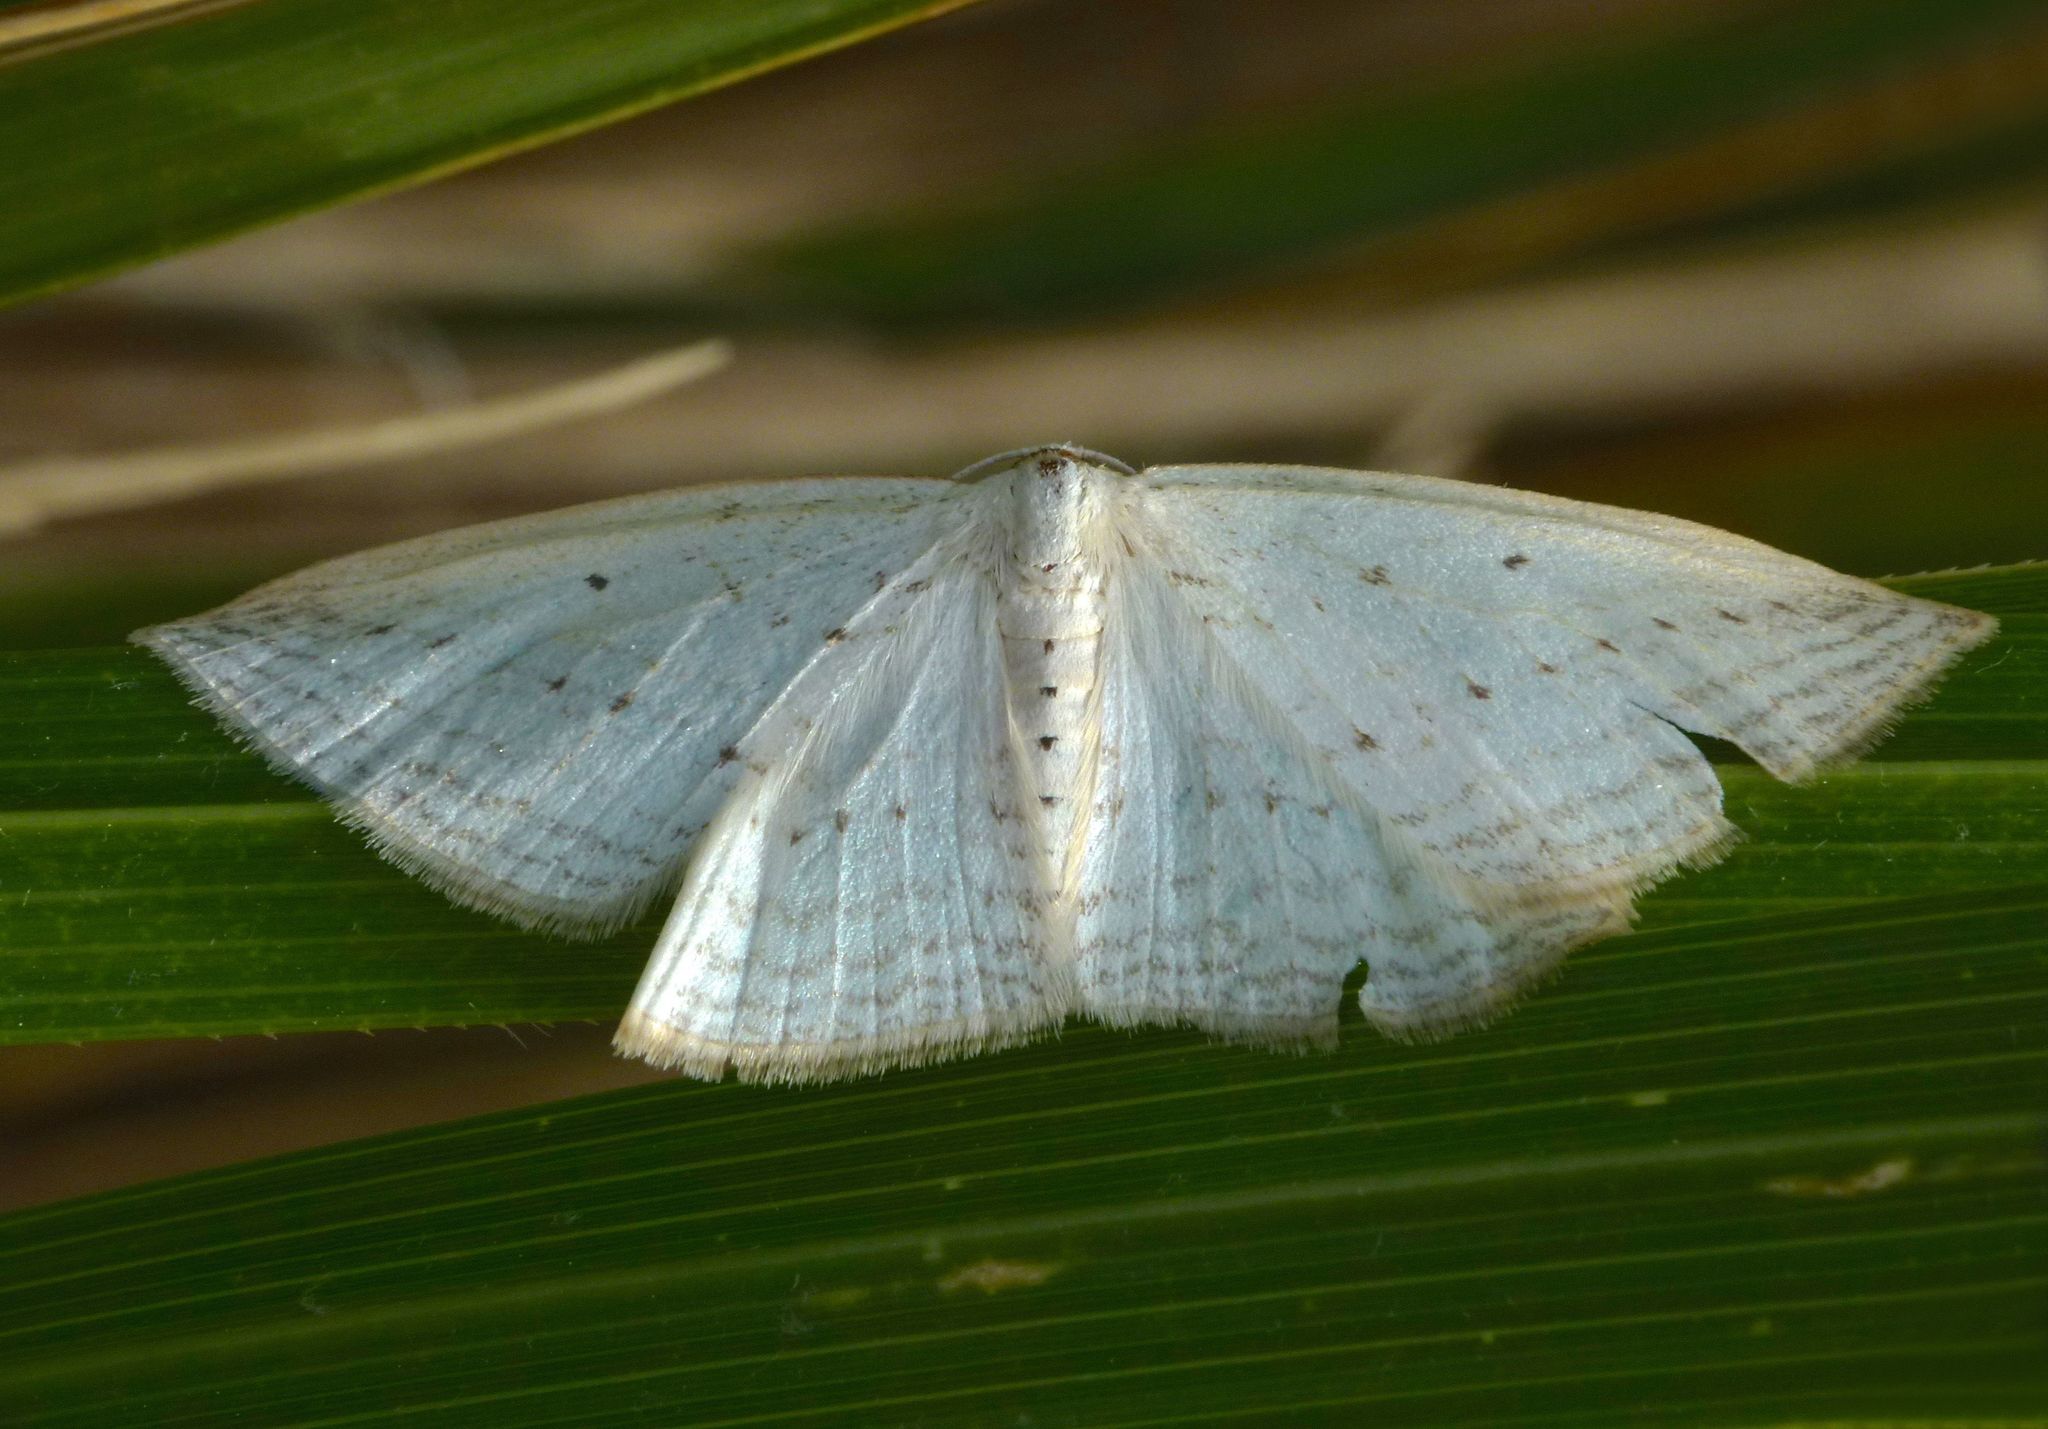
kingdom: Animalia
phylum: Arthropoda
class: Insecta
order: Lepidoptera
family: Geometridae
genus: Orthoclydon
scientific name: Orthoclydon praefectata
